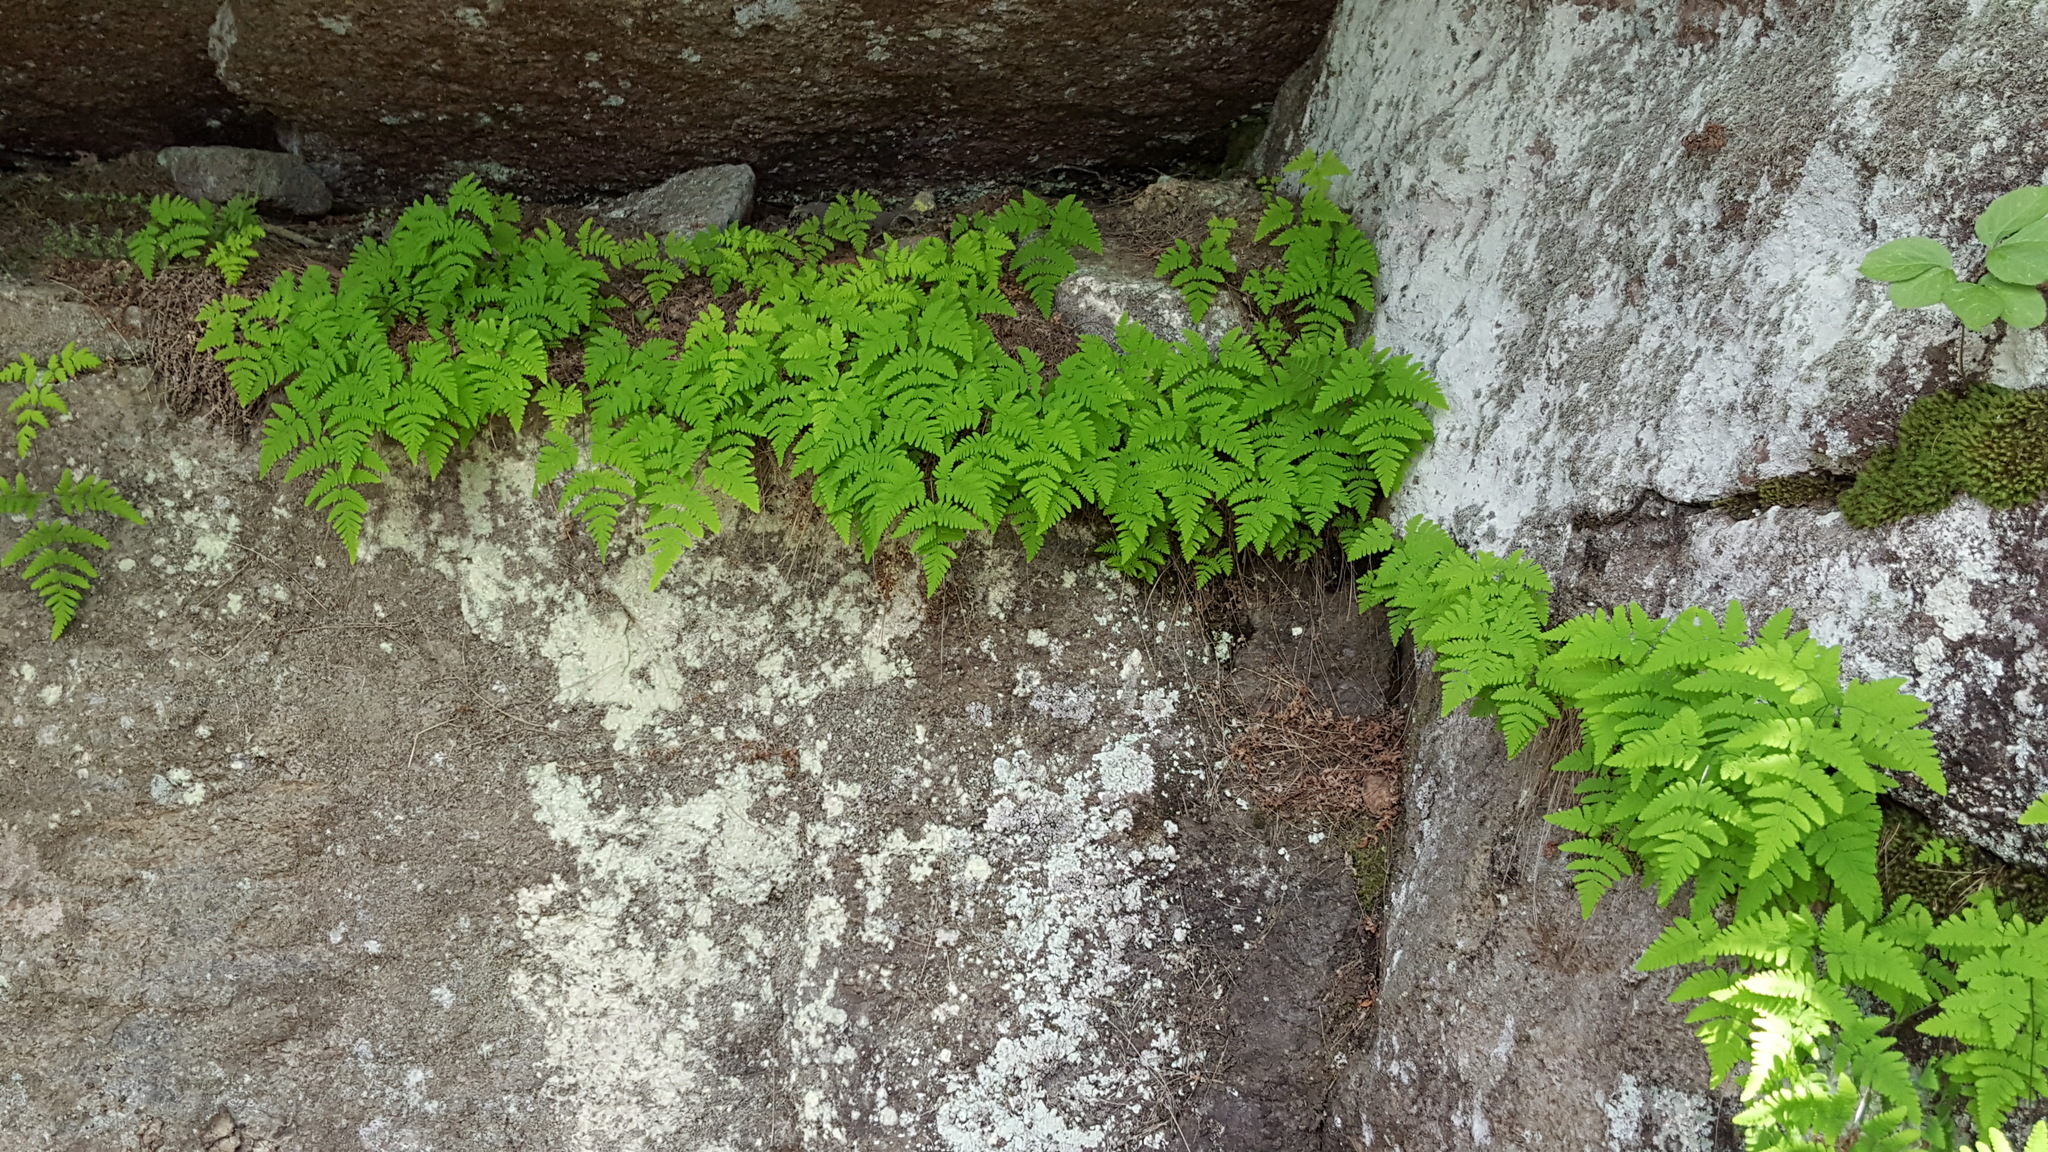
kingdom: Plantae
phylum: Tracheophyta
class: Polypodiopsida
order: Polypodiales
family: Cystopteridaceae
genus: Gymnocarpium
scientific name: Gymnocarpium jessoense
